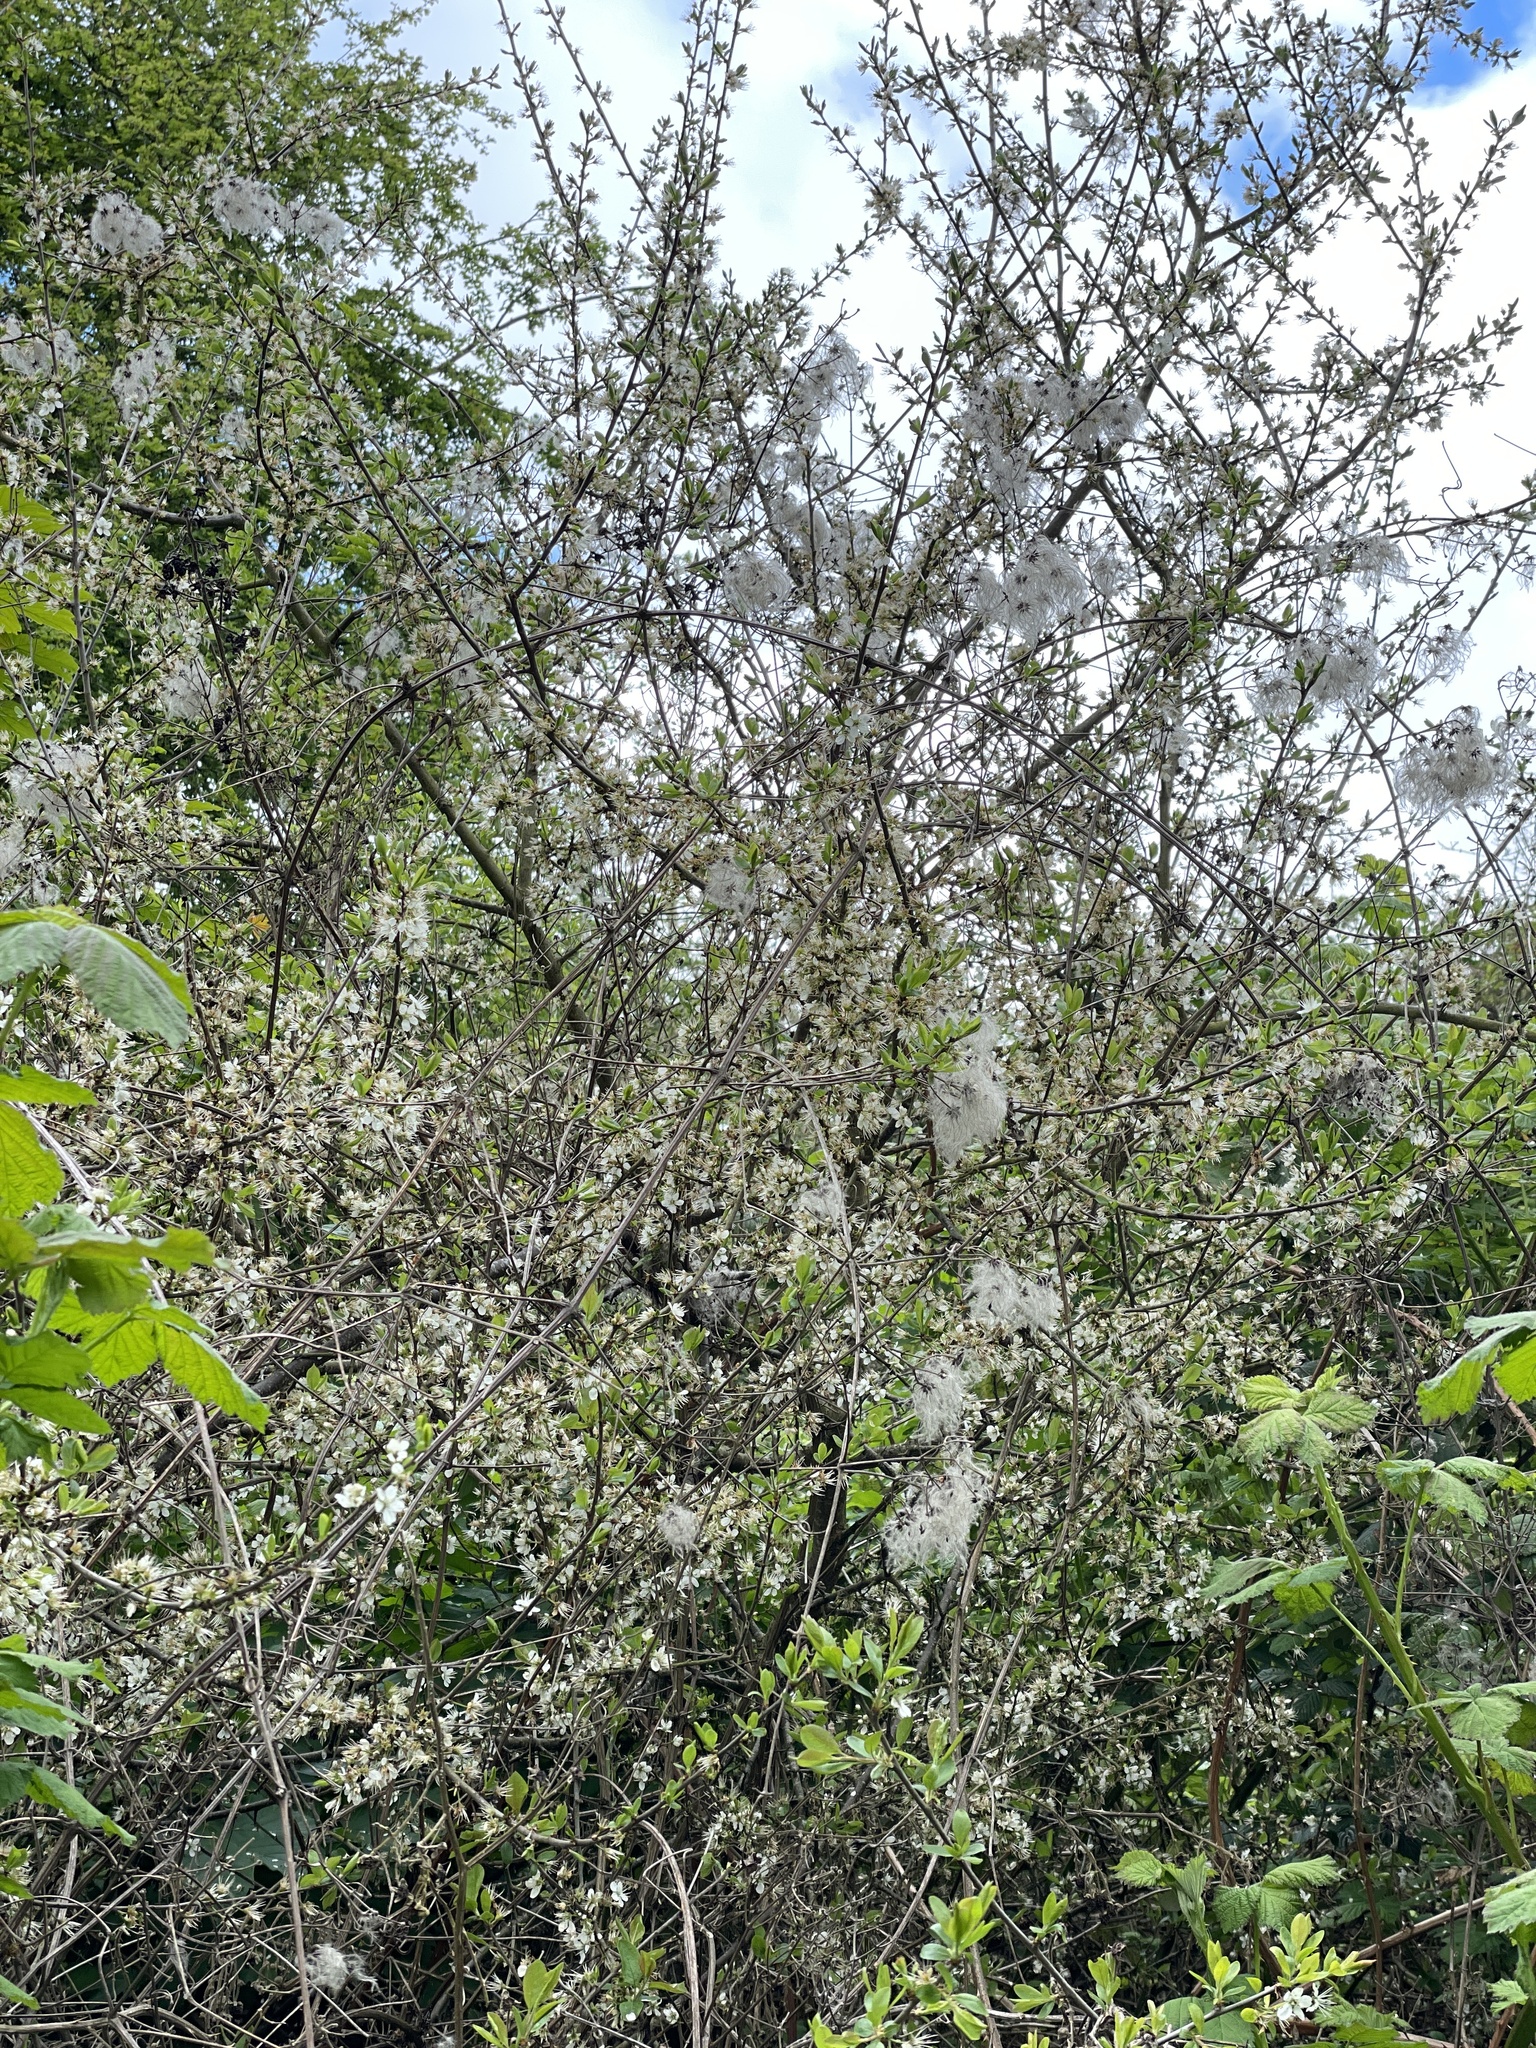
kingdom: Plantae
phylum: Tracheophyta
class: Magnoliopsida
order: Ranunculales
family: Ranunculaceae
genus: Clematis
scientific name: Clematis vitalba
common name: Evergreen clematis
